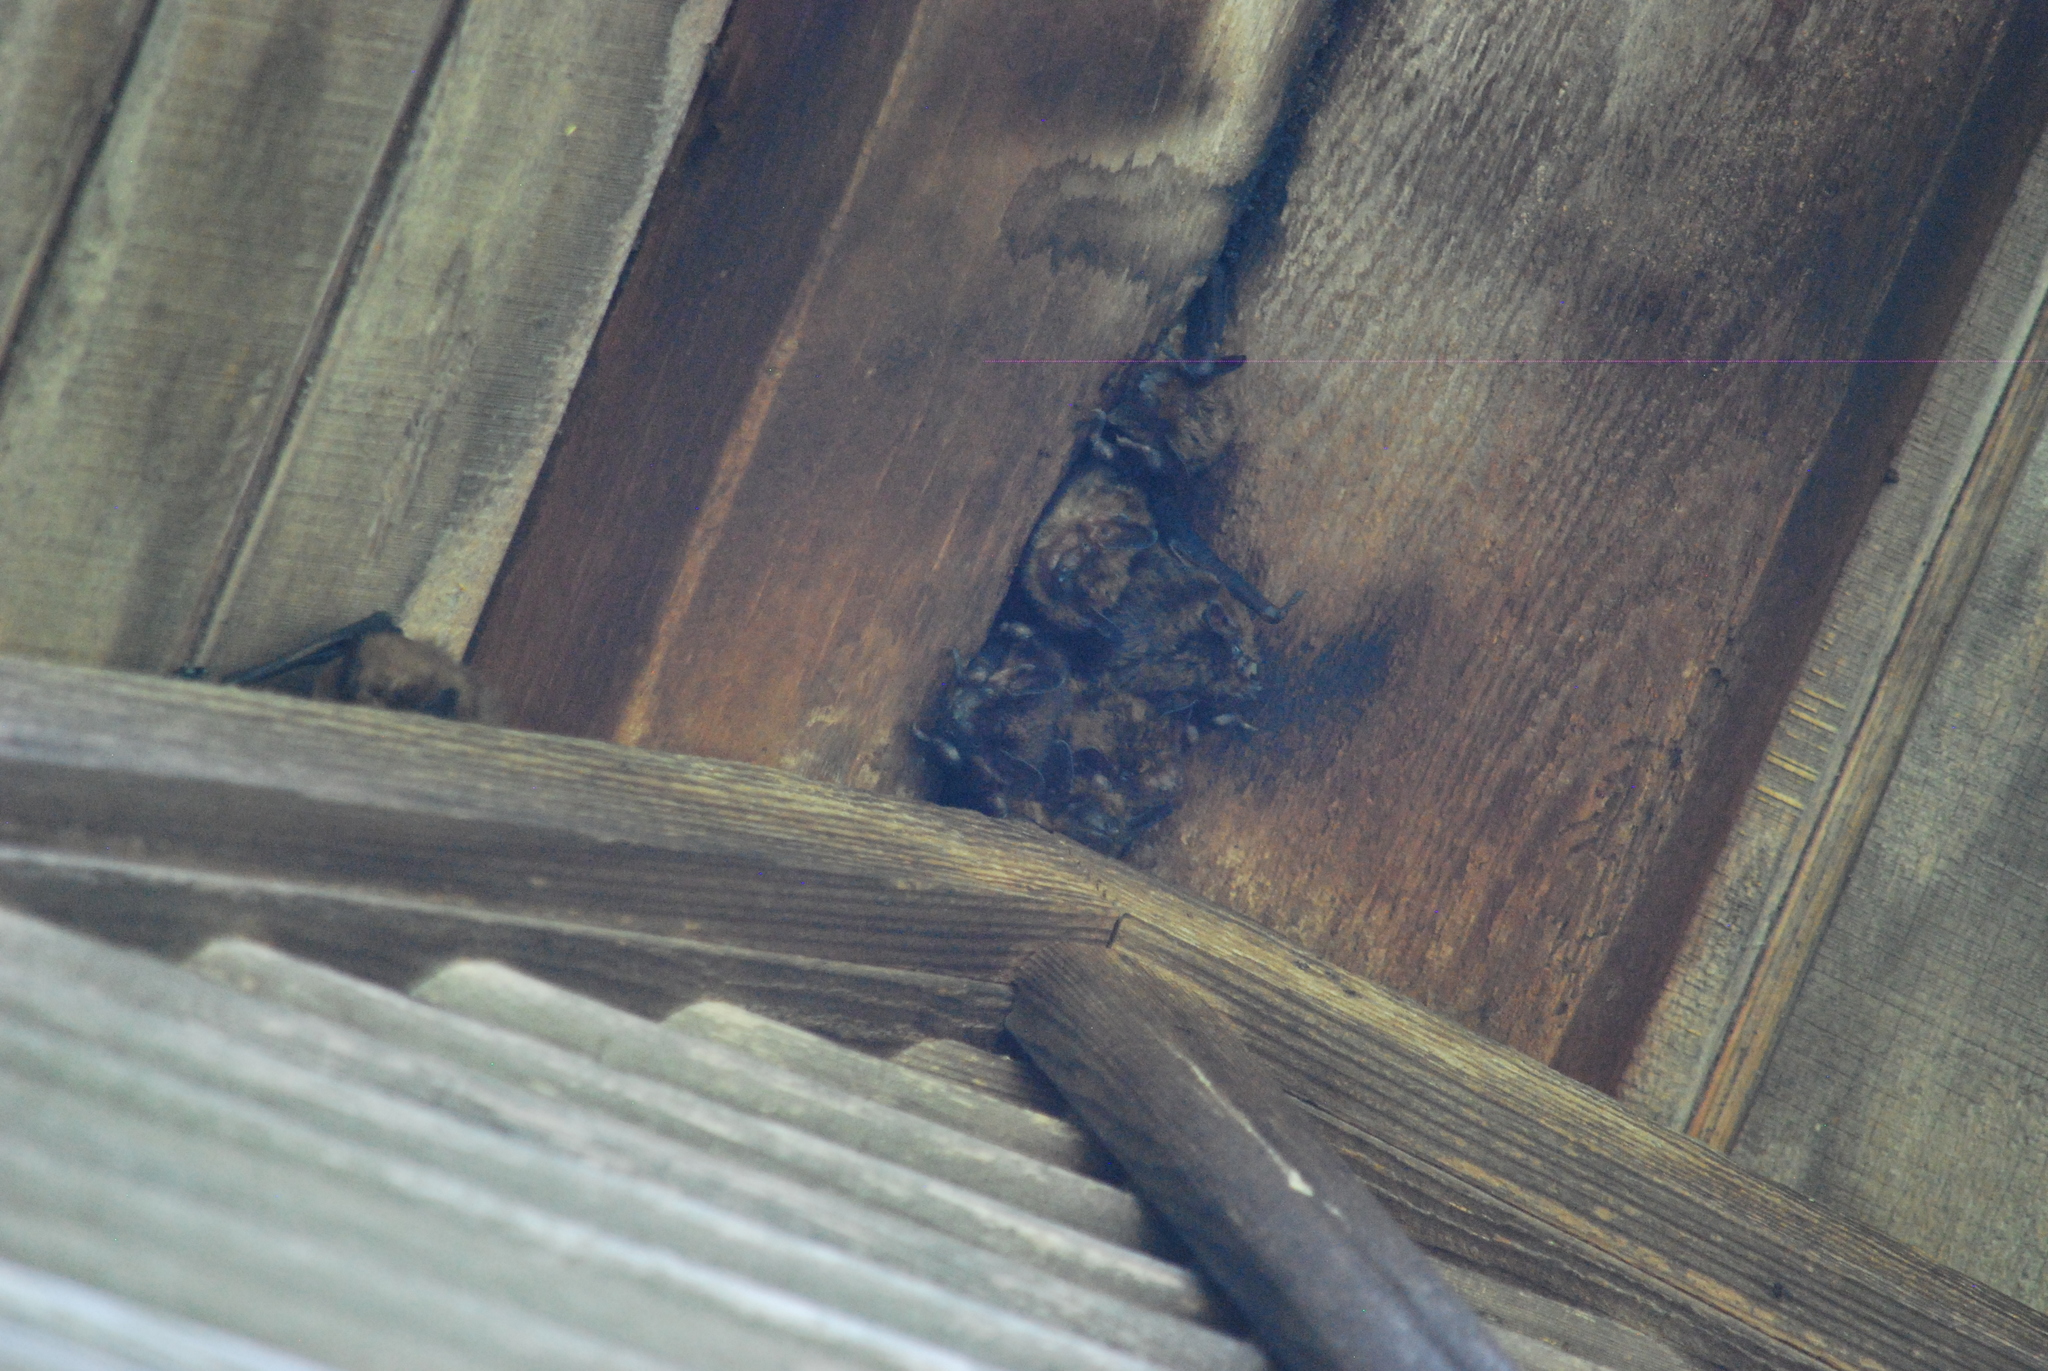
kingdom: Animalia
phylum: Chordata
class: Mammalia
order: Chiroptera
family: Vespertilionidae
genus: Eptesicus
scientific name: Eptesicus fuscus
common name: Big brown bat
